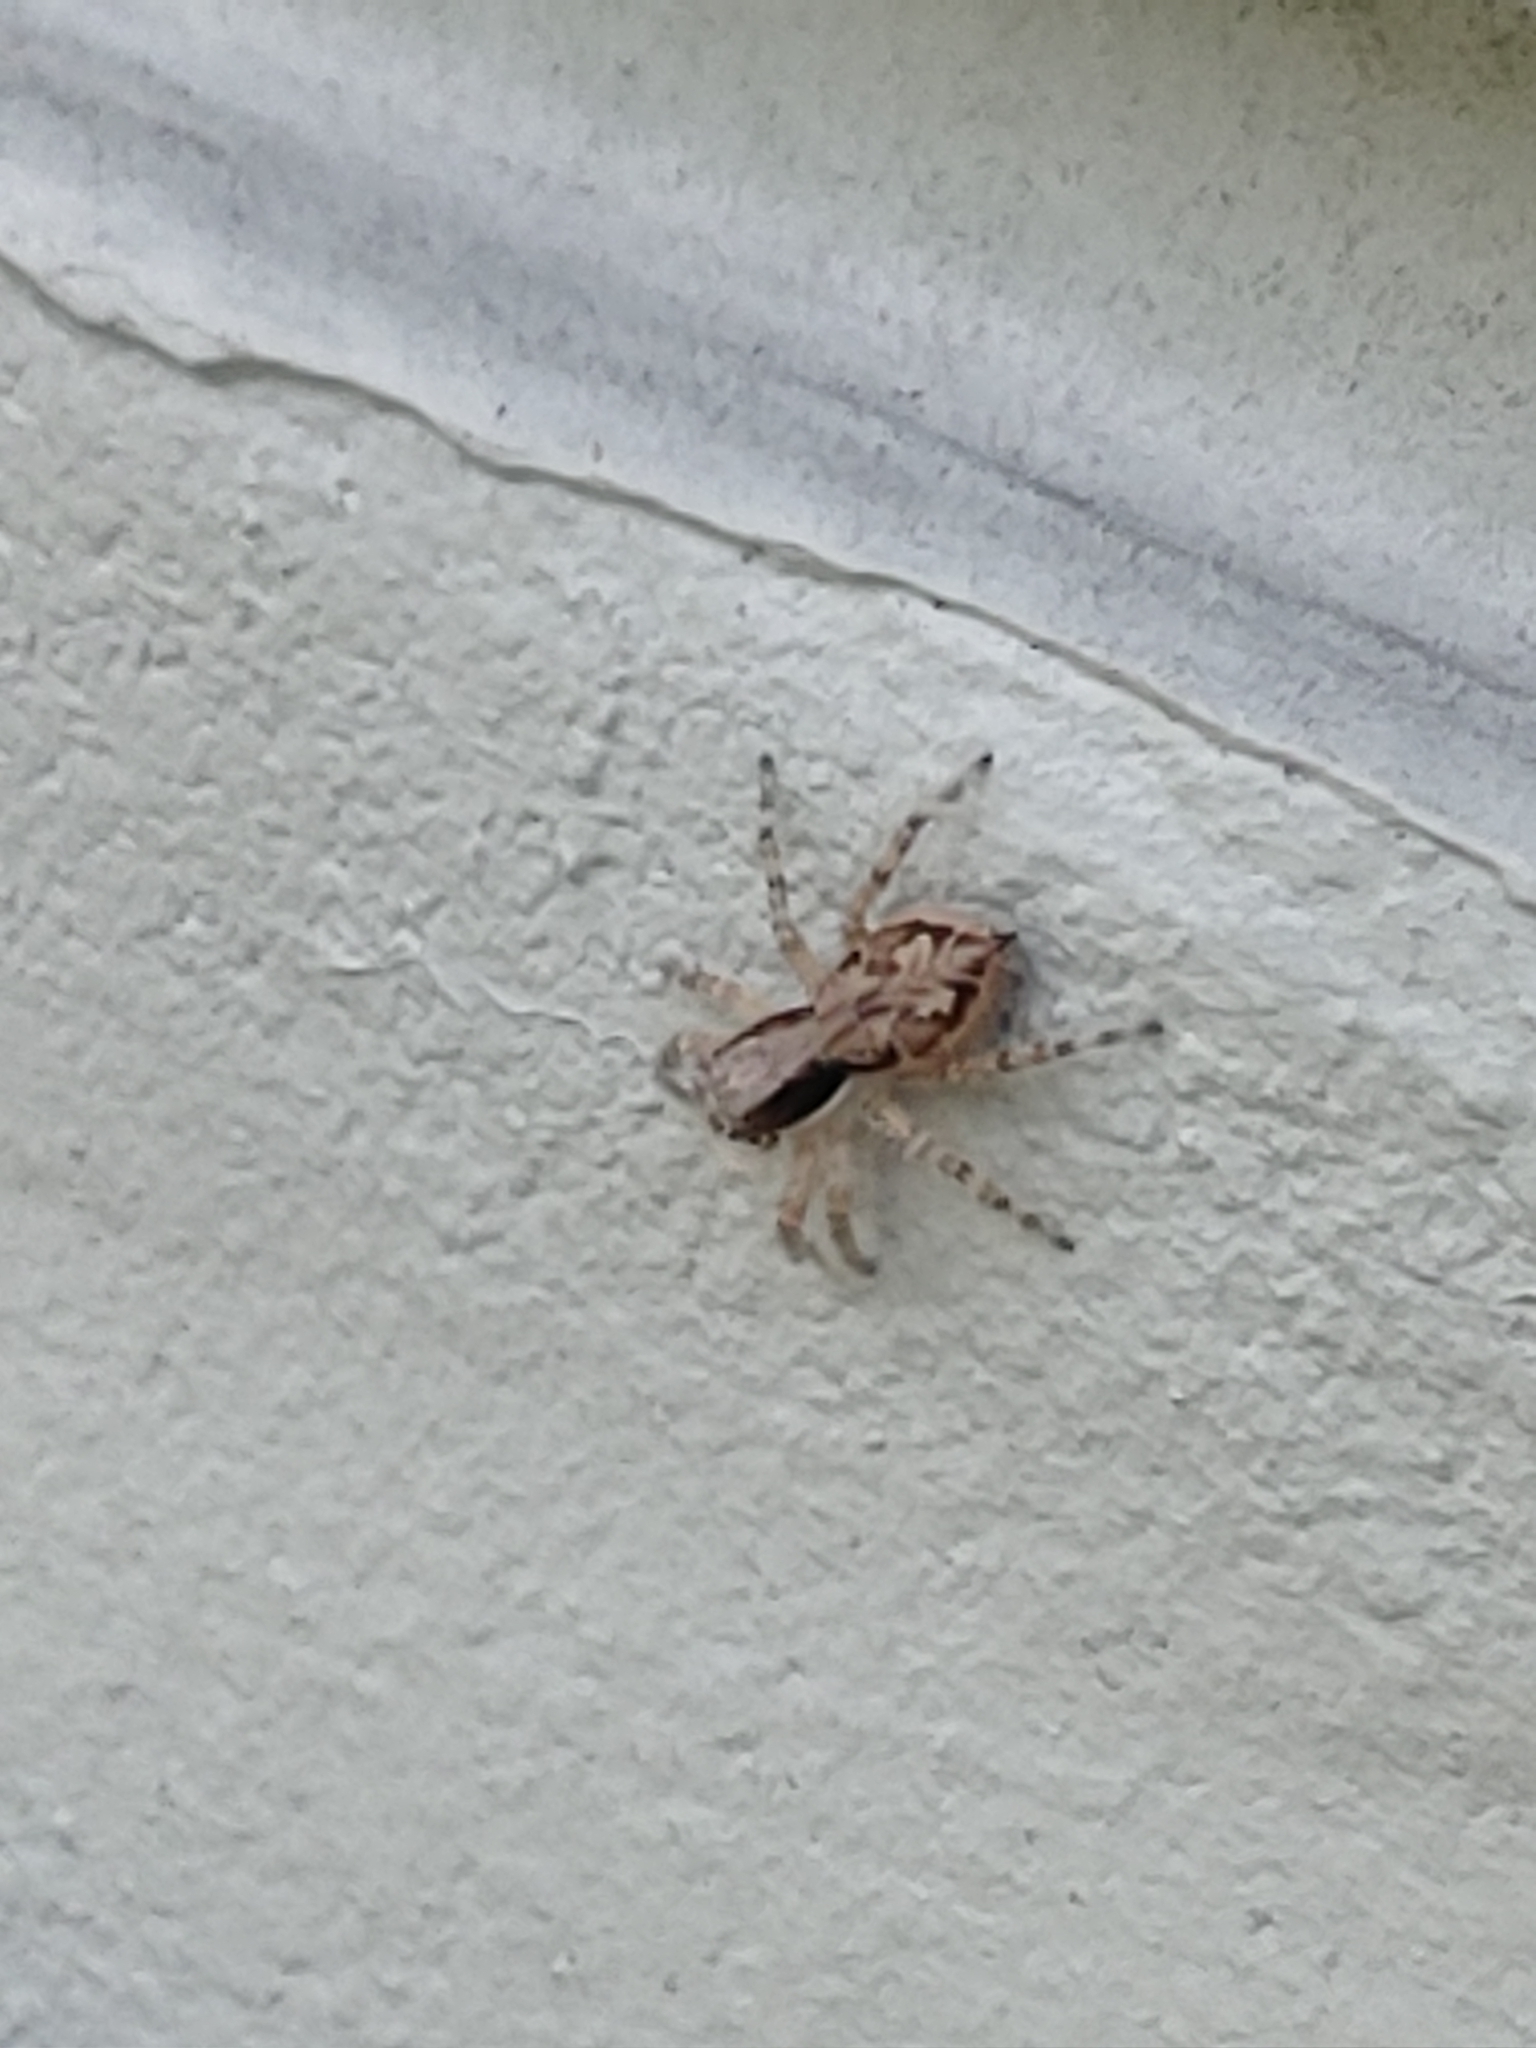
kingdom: Animalia
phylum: Arthropoda
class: Arachnida
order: Araneae
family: Salticidae
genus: Menemerus
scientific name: Menemerus bivittatus
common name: Gray wall jumper
